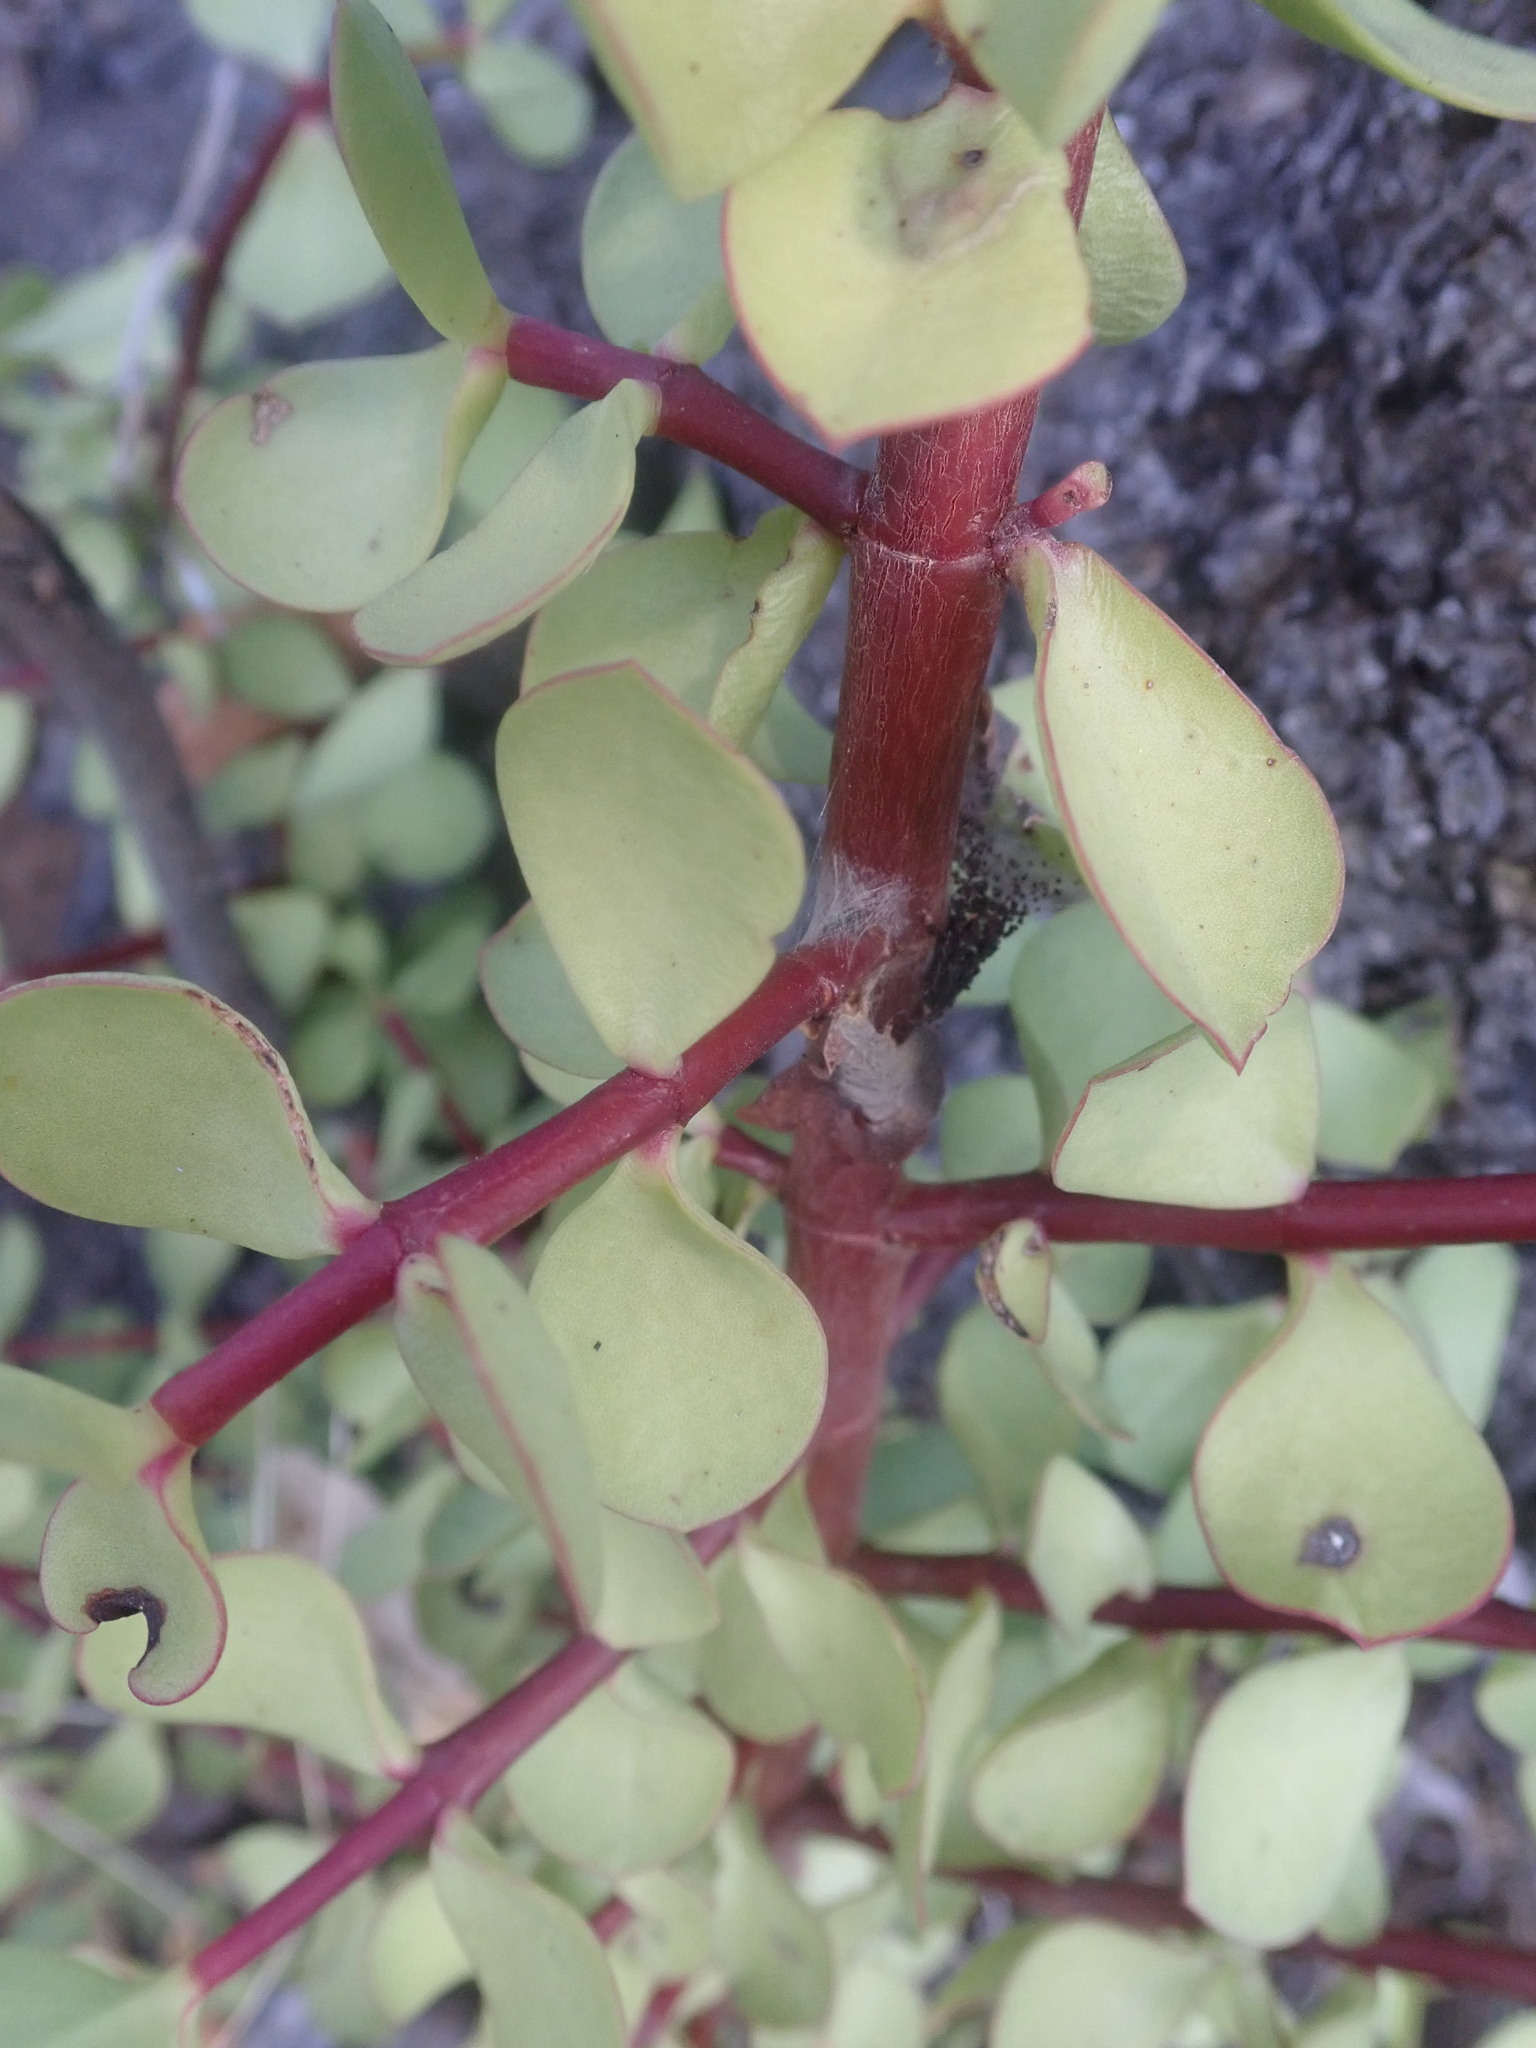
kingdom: Plantae
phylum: Tracheophyta
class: Magnoliopsida
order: Caryophyllales
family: Didiereaceae
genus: Portulacaria
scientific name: Portulacaria afra
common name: Elephant-bush
